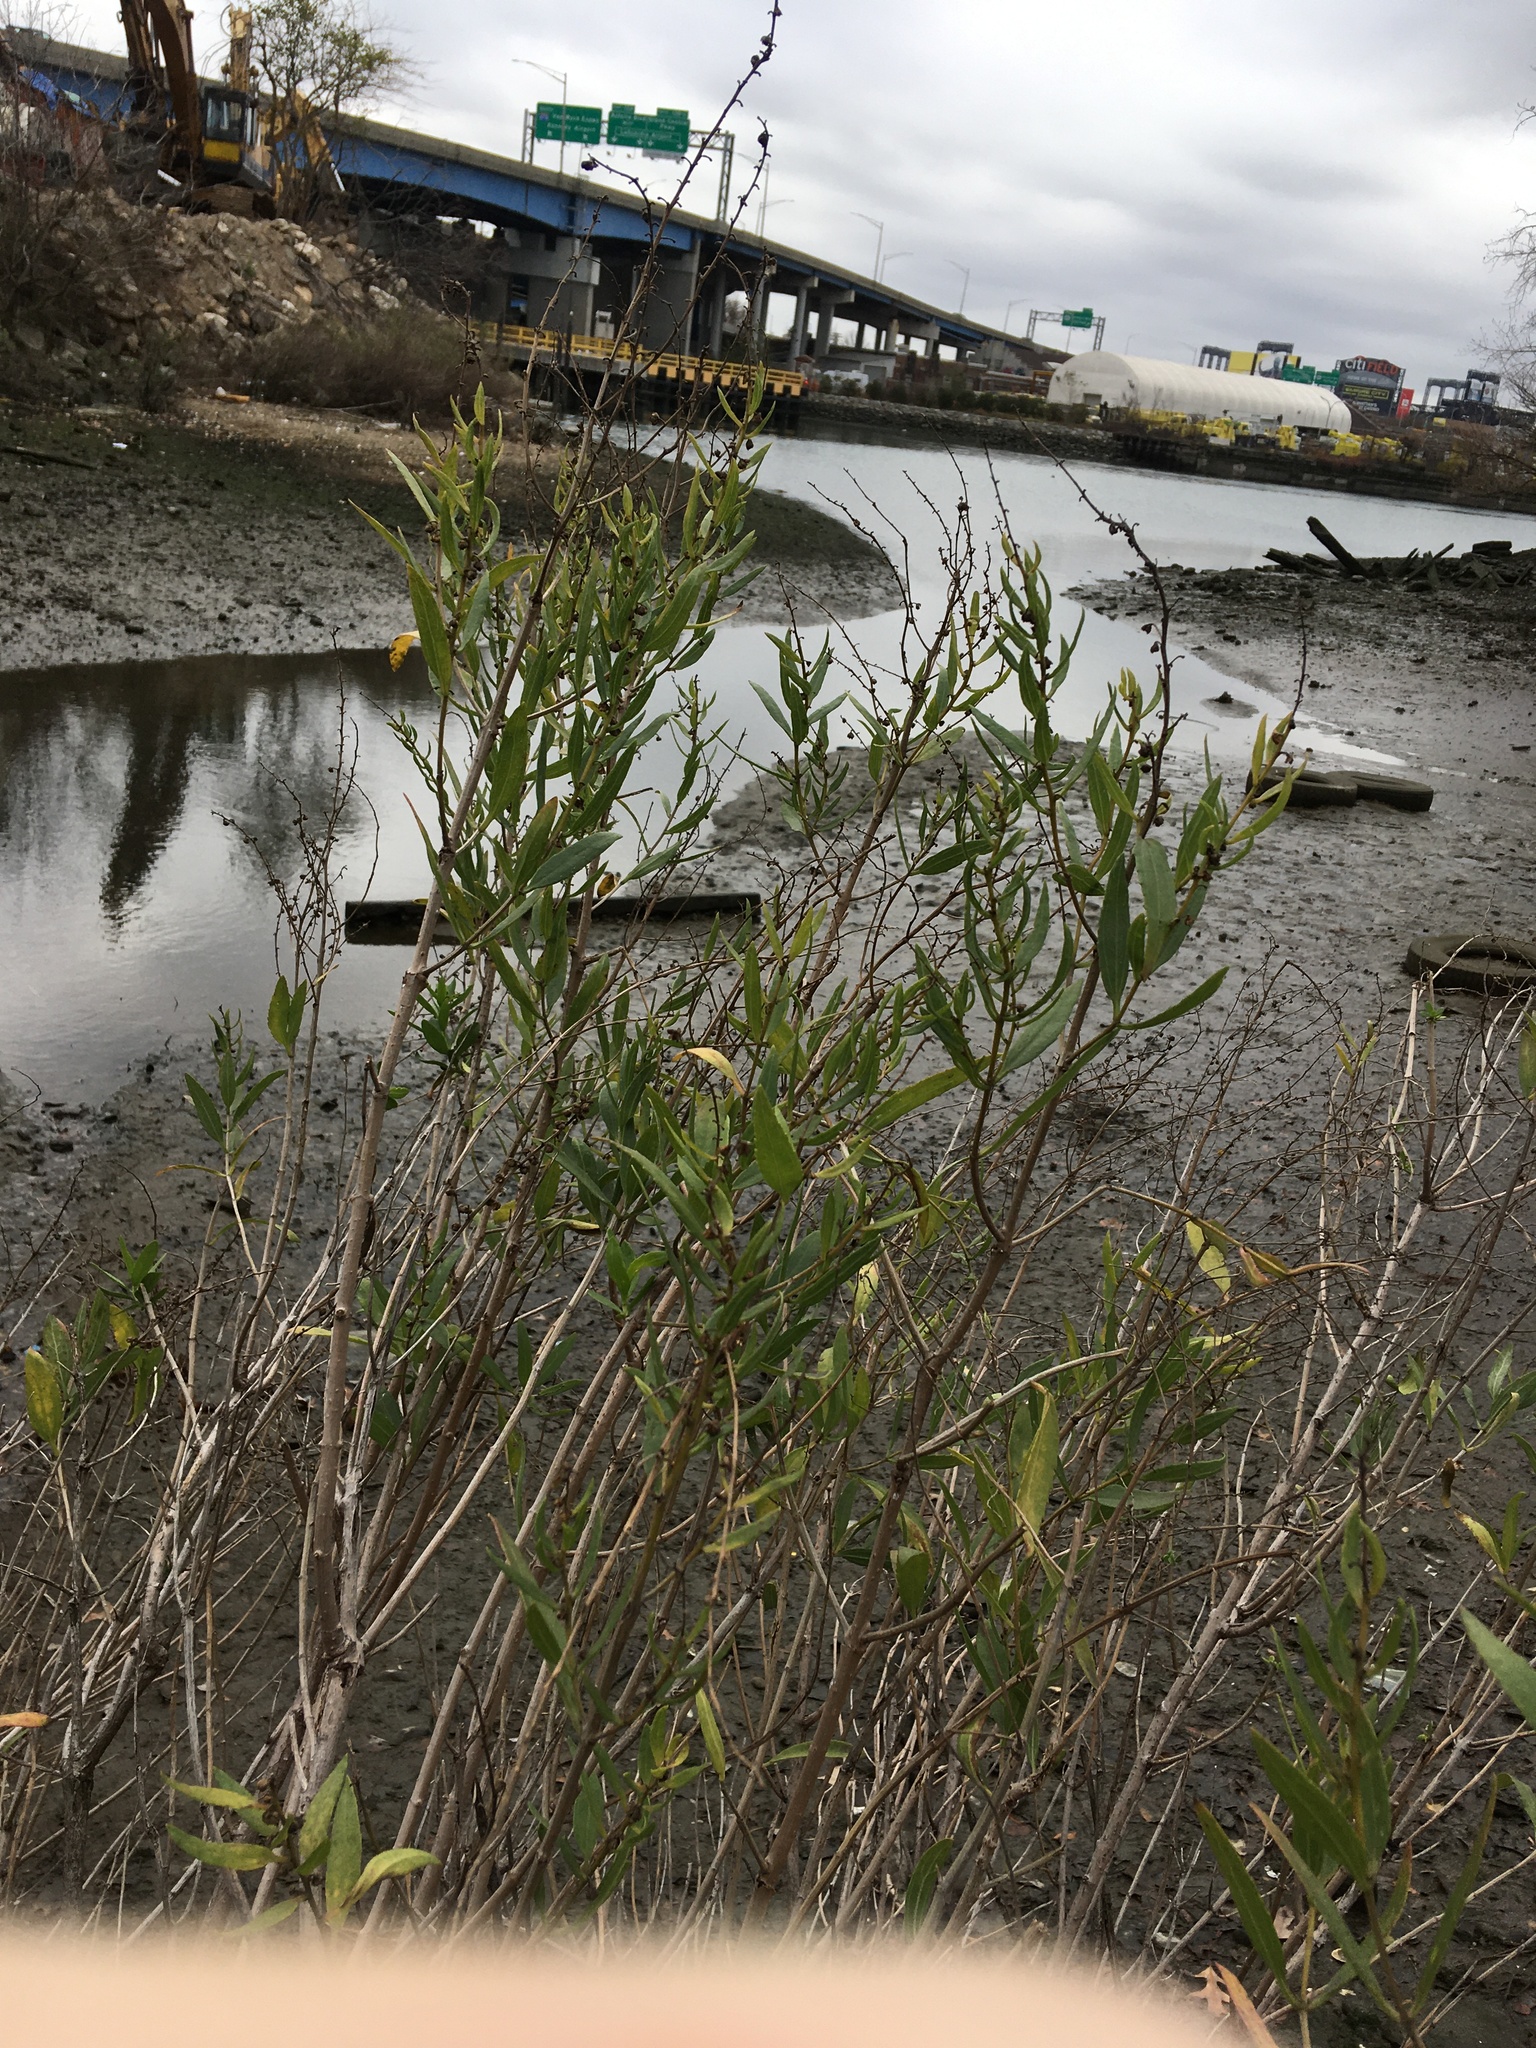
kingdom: Plantae
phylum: Tracheophyta
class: Magnoliopsida
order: Asterales
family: Asteraceae
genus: Iva
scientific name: Iva frutescens
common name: Big-leaved marsh-elder
